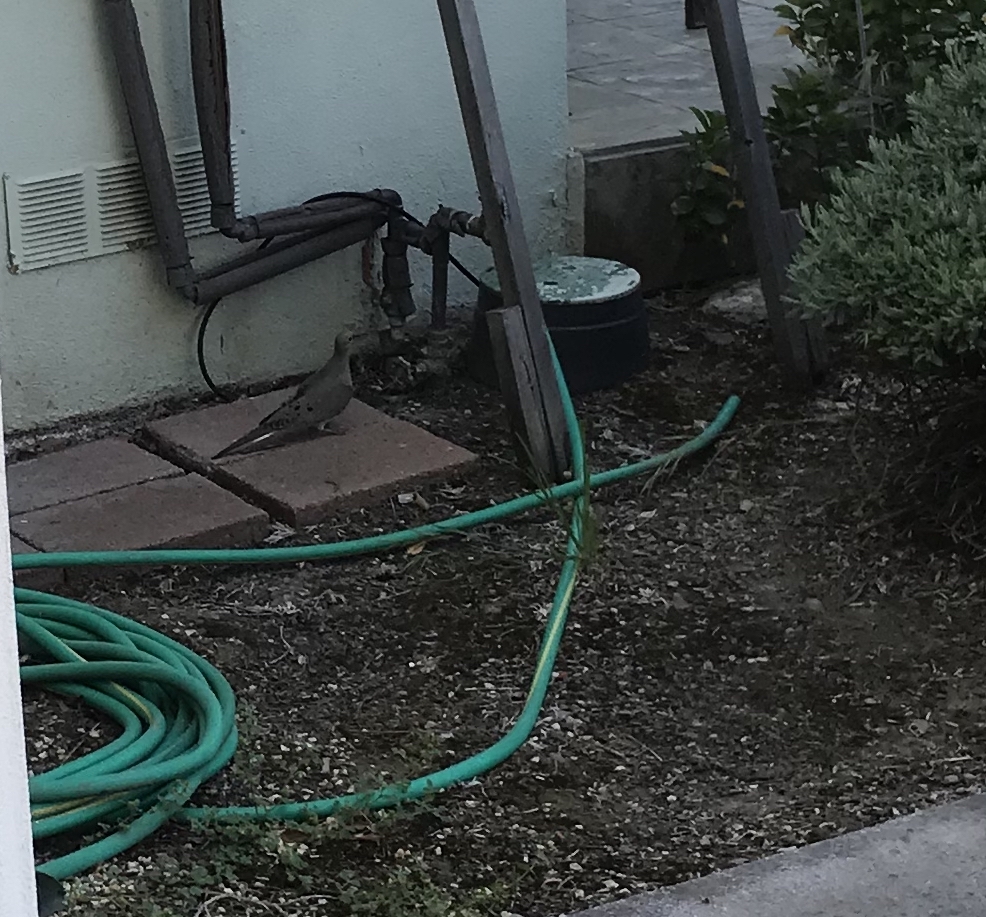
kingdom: Animalia
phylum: Chordata
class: Aves
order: Columbiformes
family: Columbidae
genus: Zenaida
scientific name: Zenaida macroura
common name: Mourning dove
